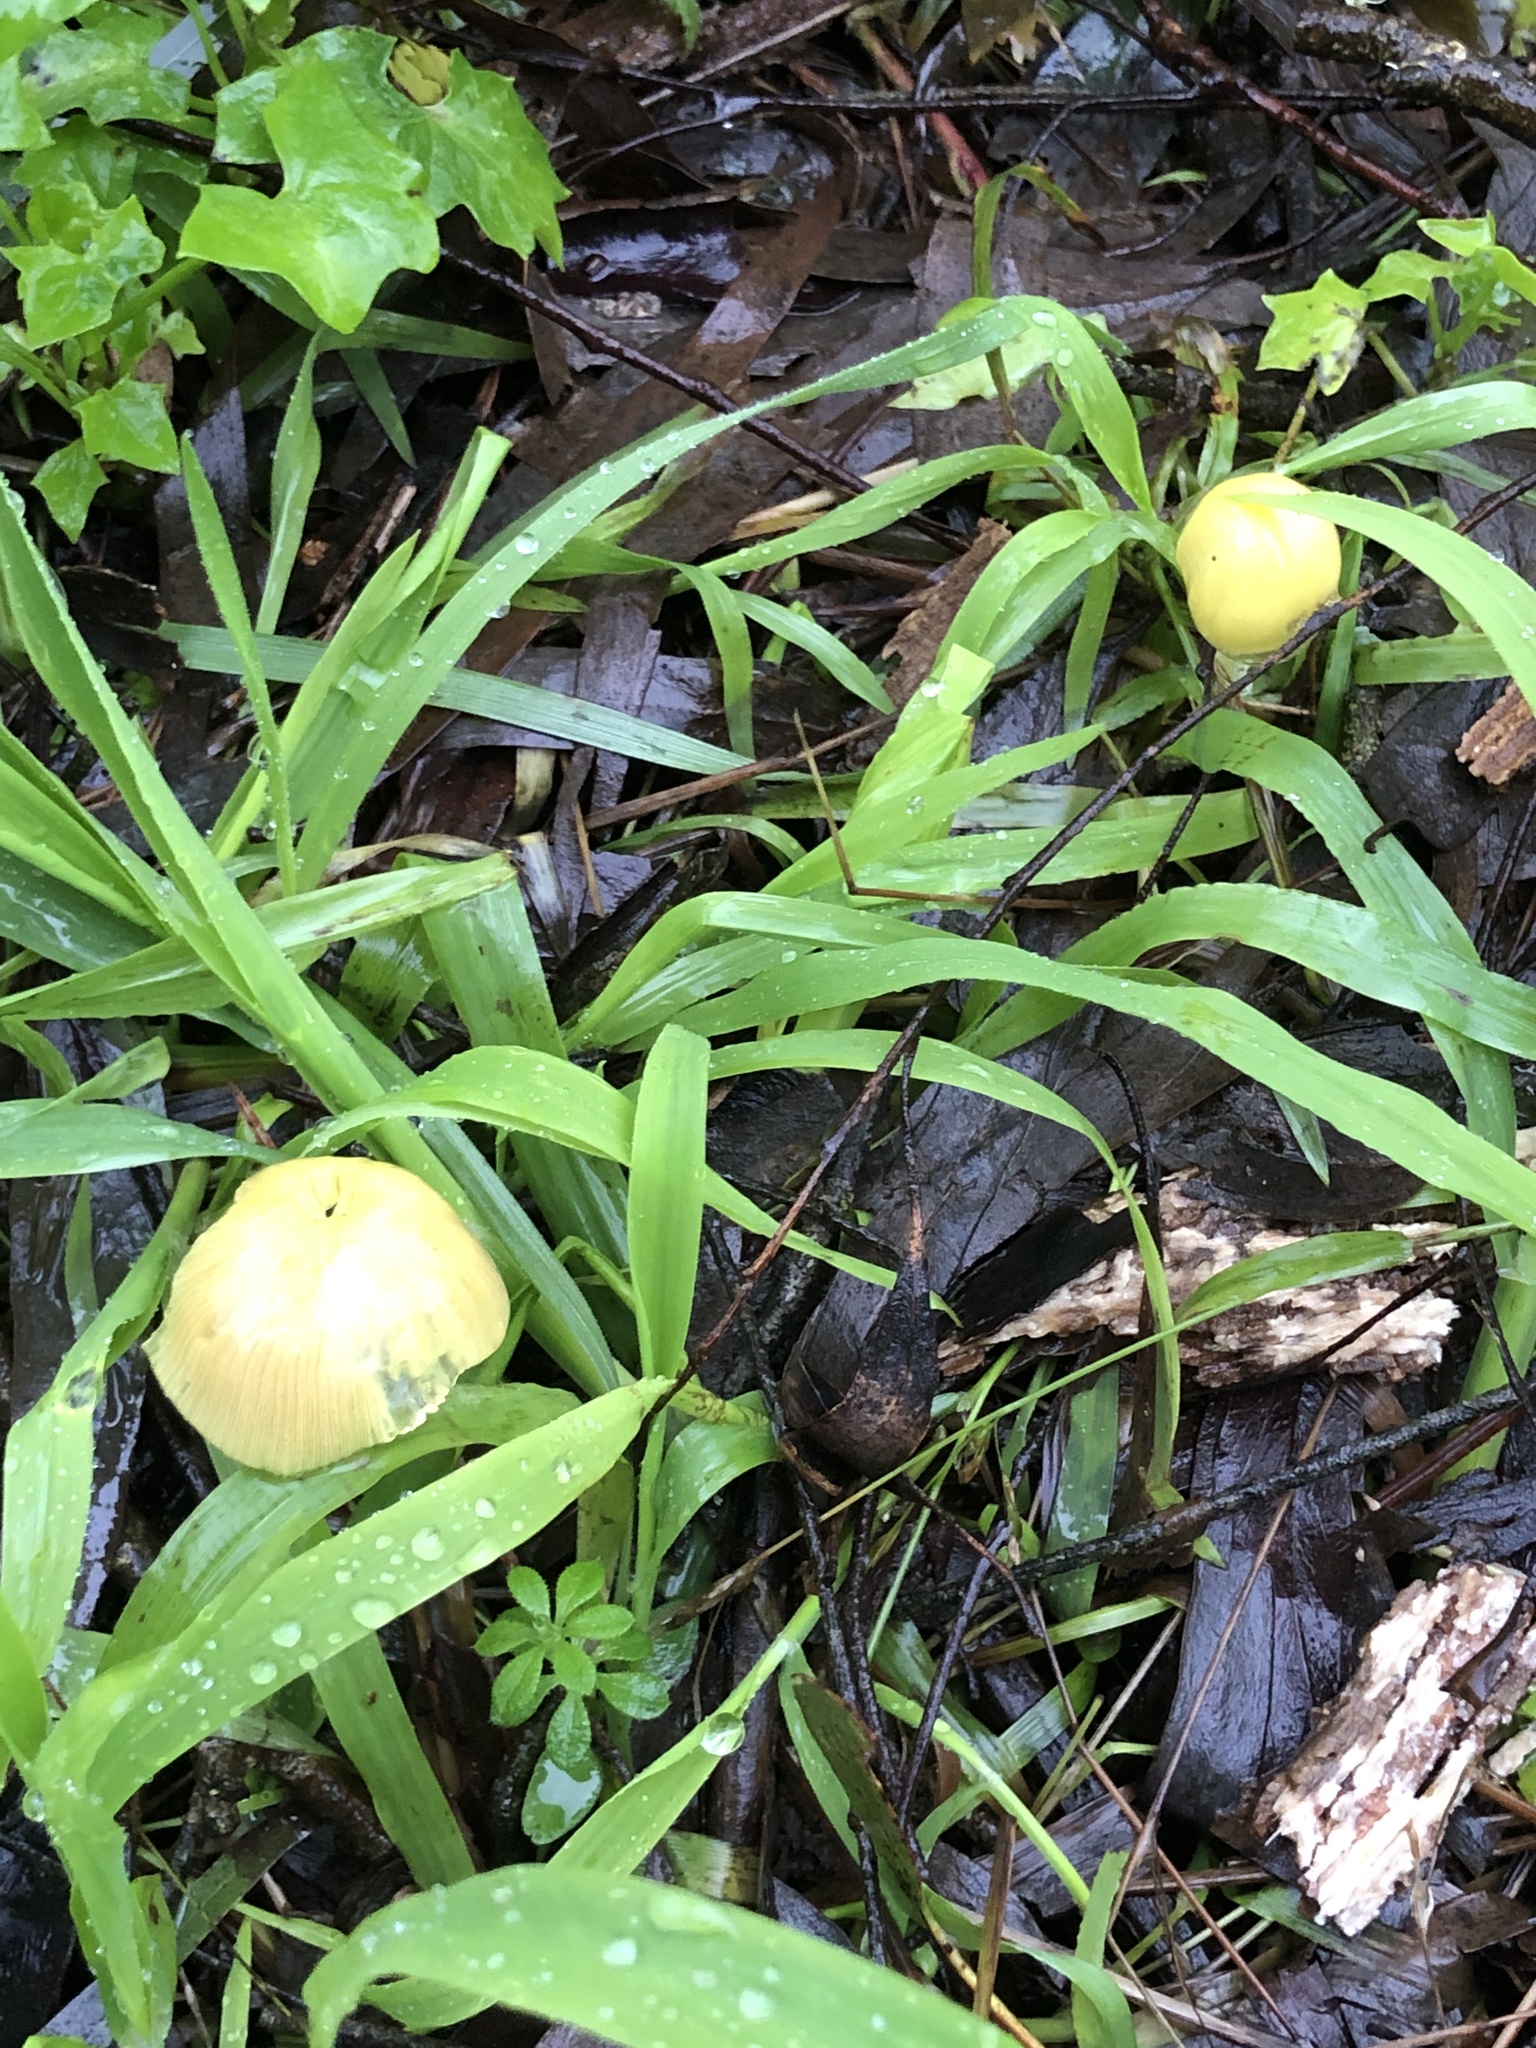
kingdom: Fungi
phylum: Basidiomycota
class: Agaricomycetes
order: Agaricales
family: Bolbitiaceae
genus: Bolbitius
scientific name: Bolbitius titubans
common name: Yellow fieldcap
